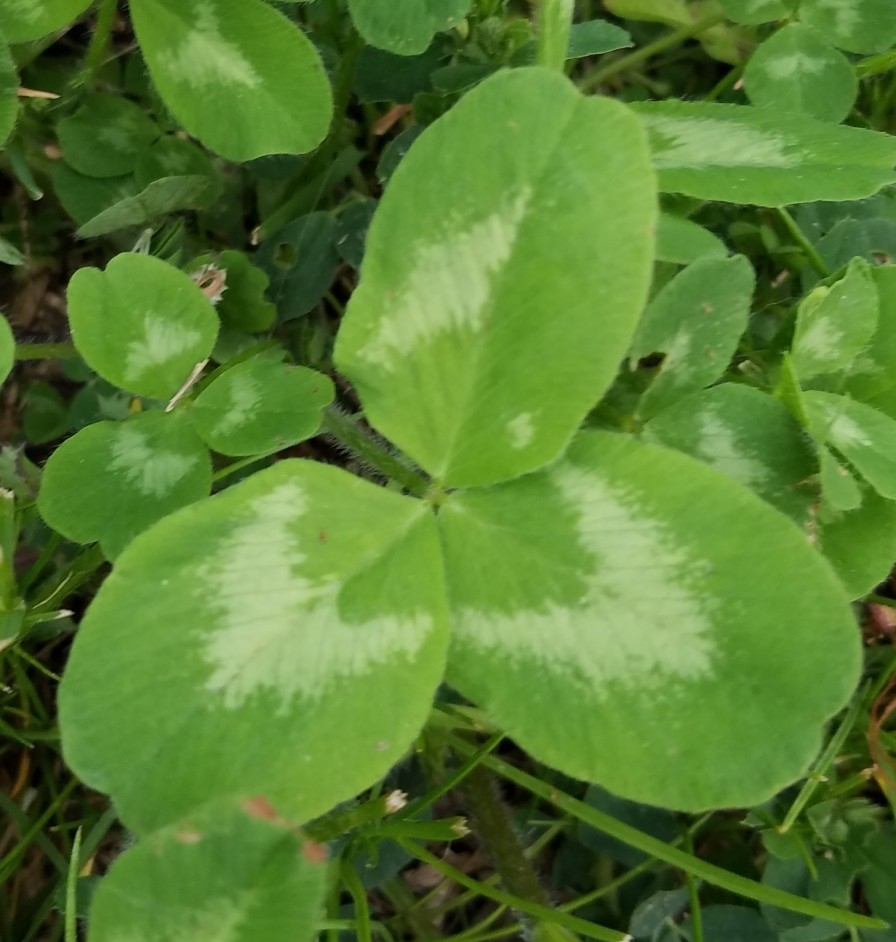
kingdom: Plantae
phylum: Tracheophyta
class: Magnoliopsida
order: Fabales
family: Fabaceae
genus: Trifolium
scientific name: Trifolium pratense
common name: Red clover
